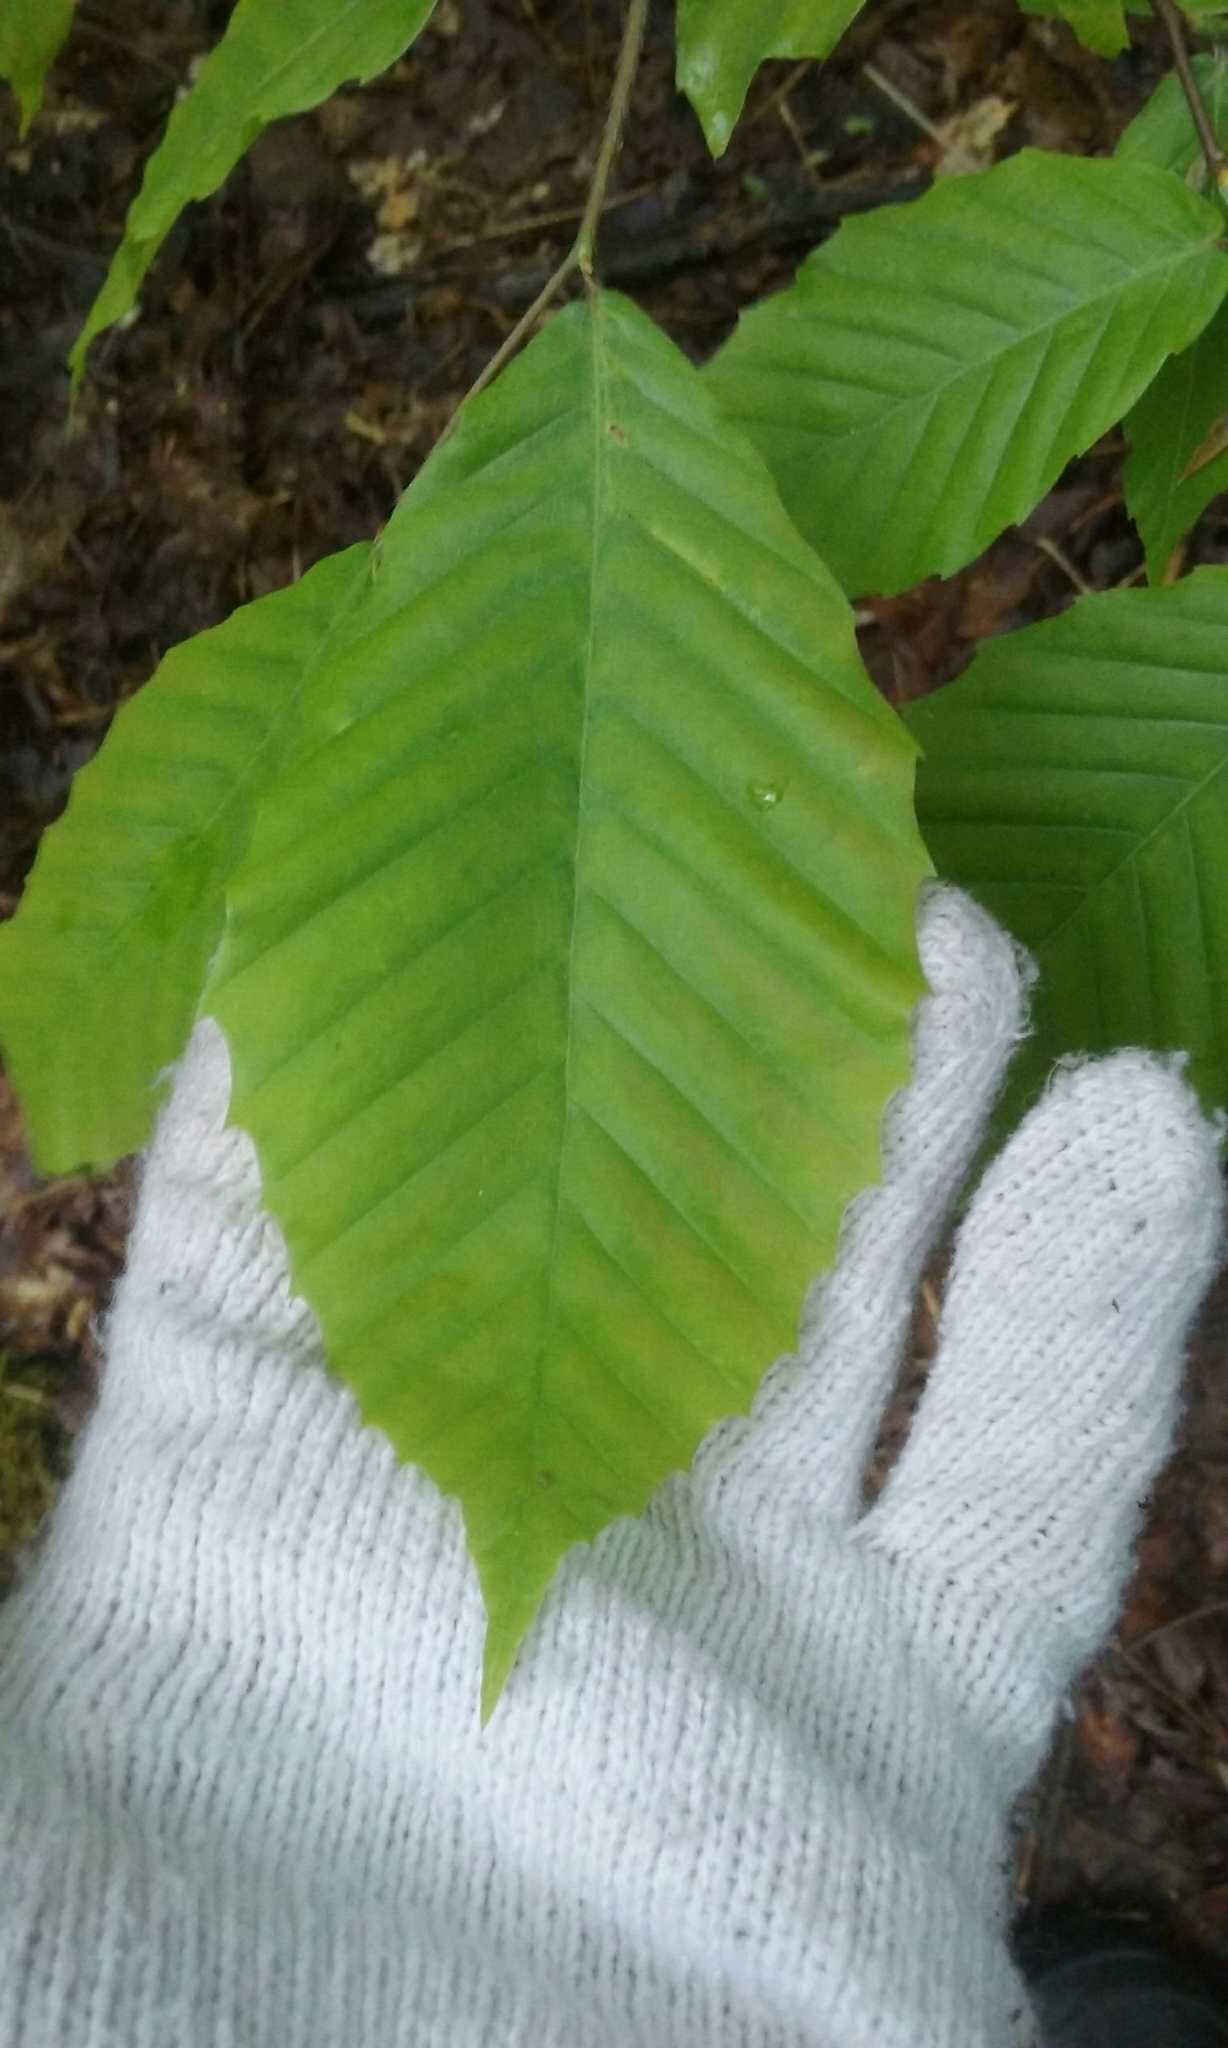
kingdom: Plantae
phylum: Tracheophyta
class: Magnoliopsida
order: Fagales
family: Fagaceae
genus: Fagus
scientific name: Fagus grandifolia
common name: American beech
